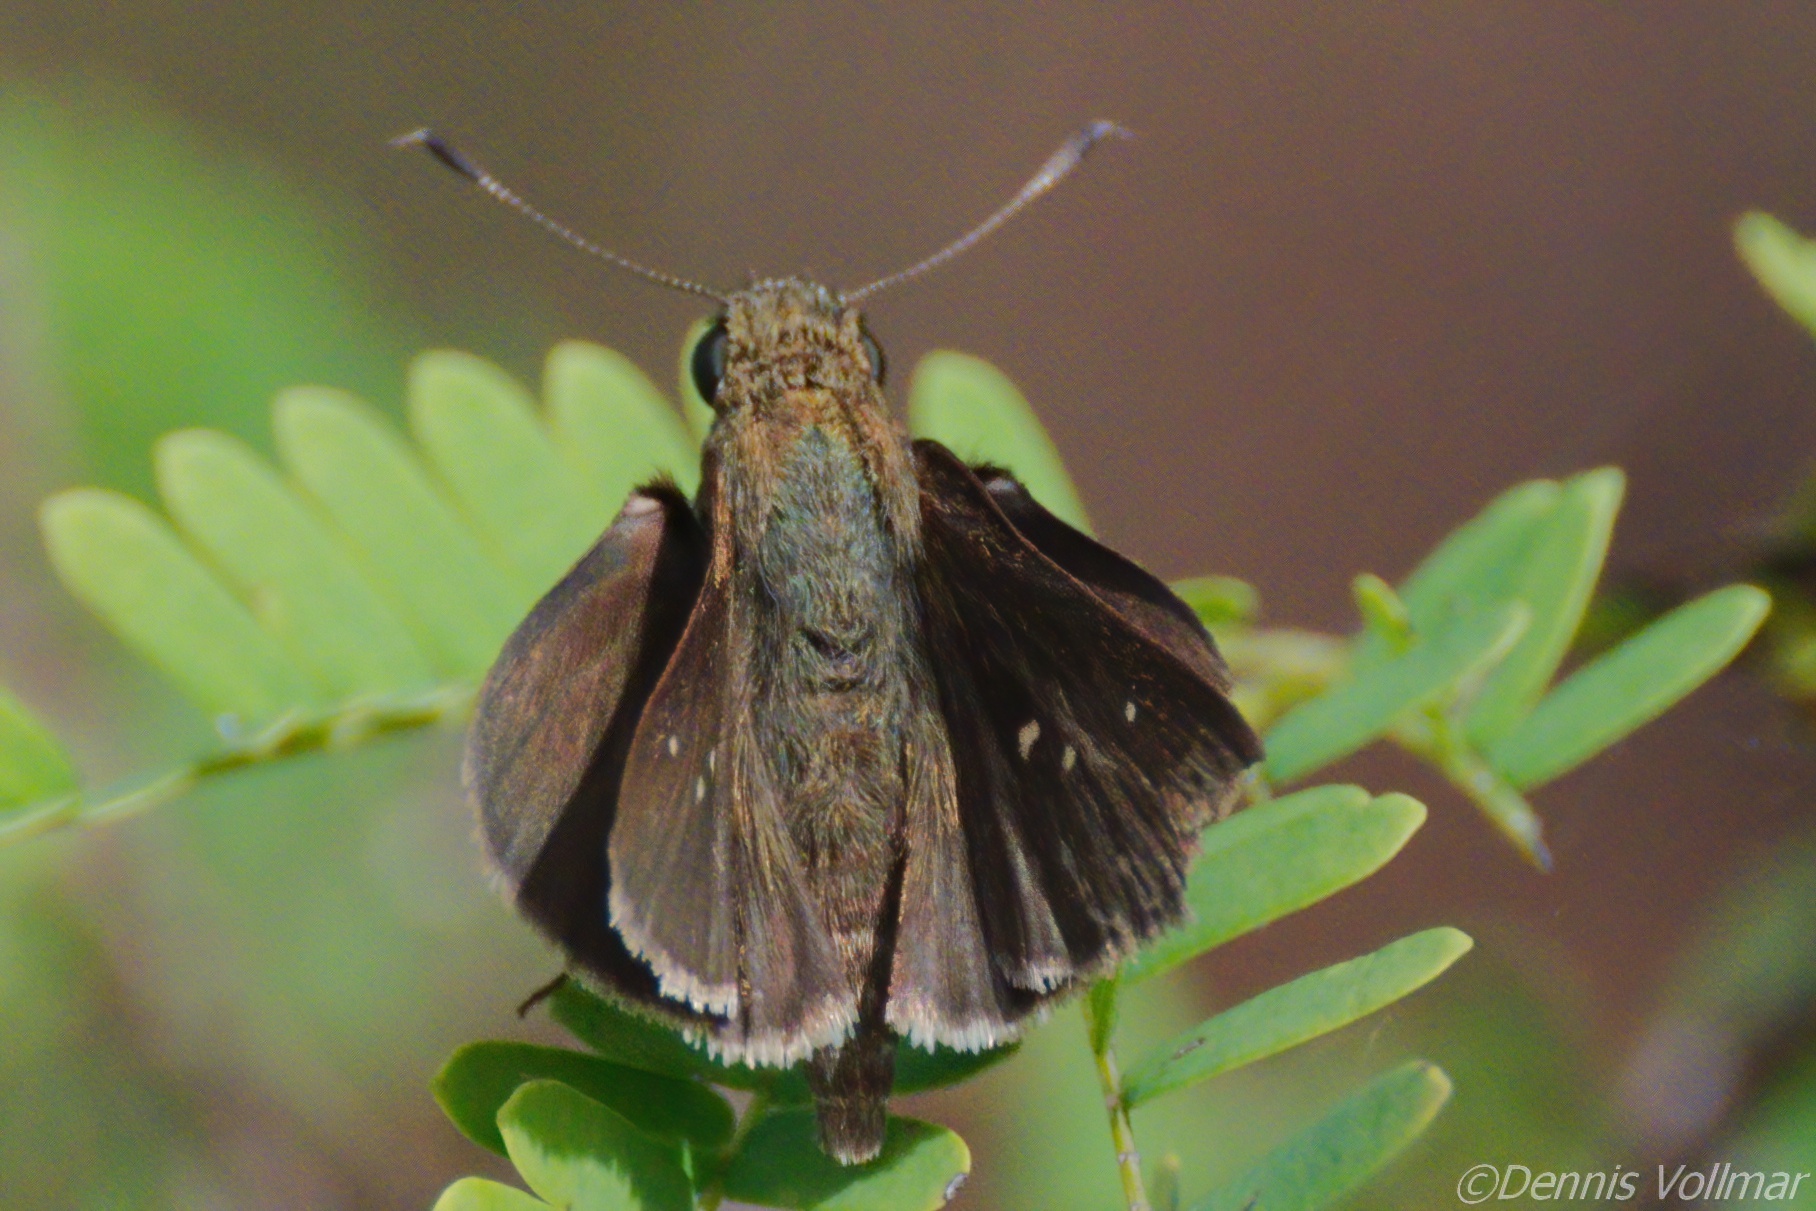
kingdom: Animalia
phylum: Arthropoda
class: Insecta
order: Lepidoptera
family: Hesperiidae
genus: Oligoria
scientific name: Oligoria maculata
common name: Twin-spot skipper
